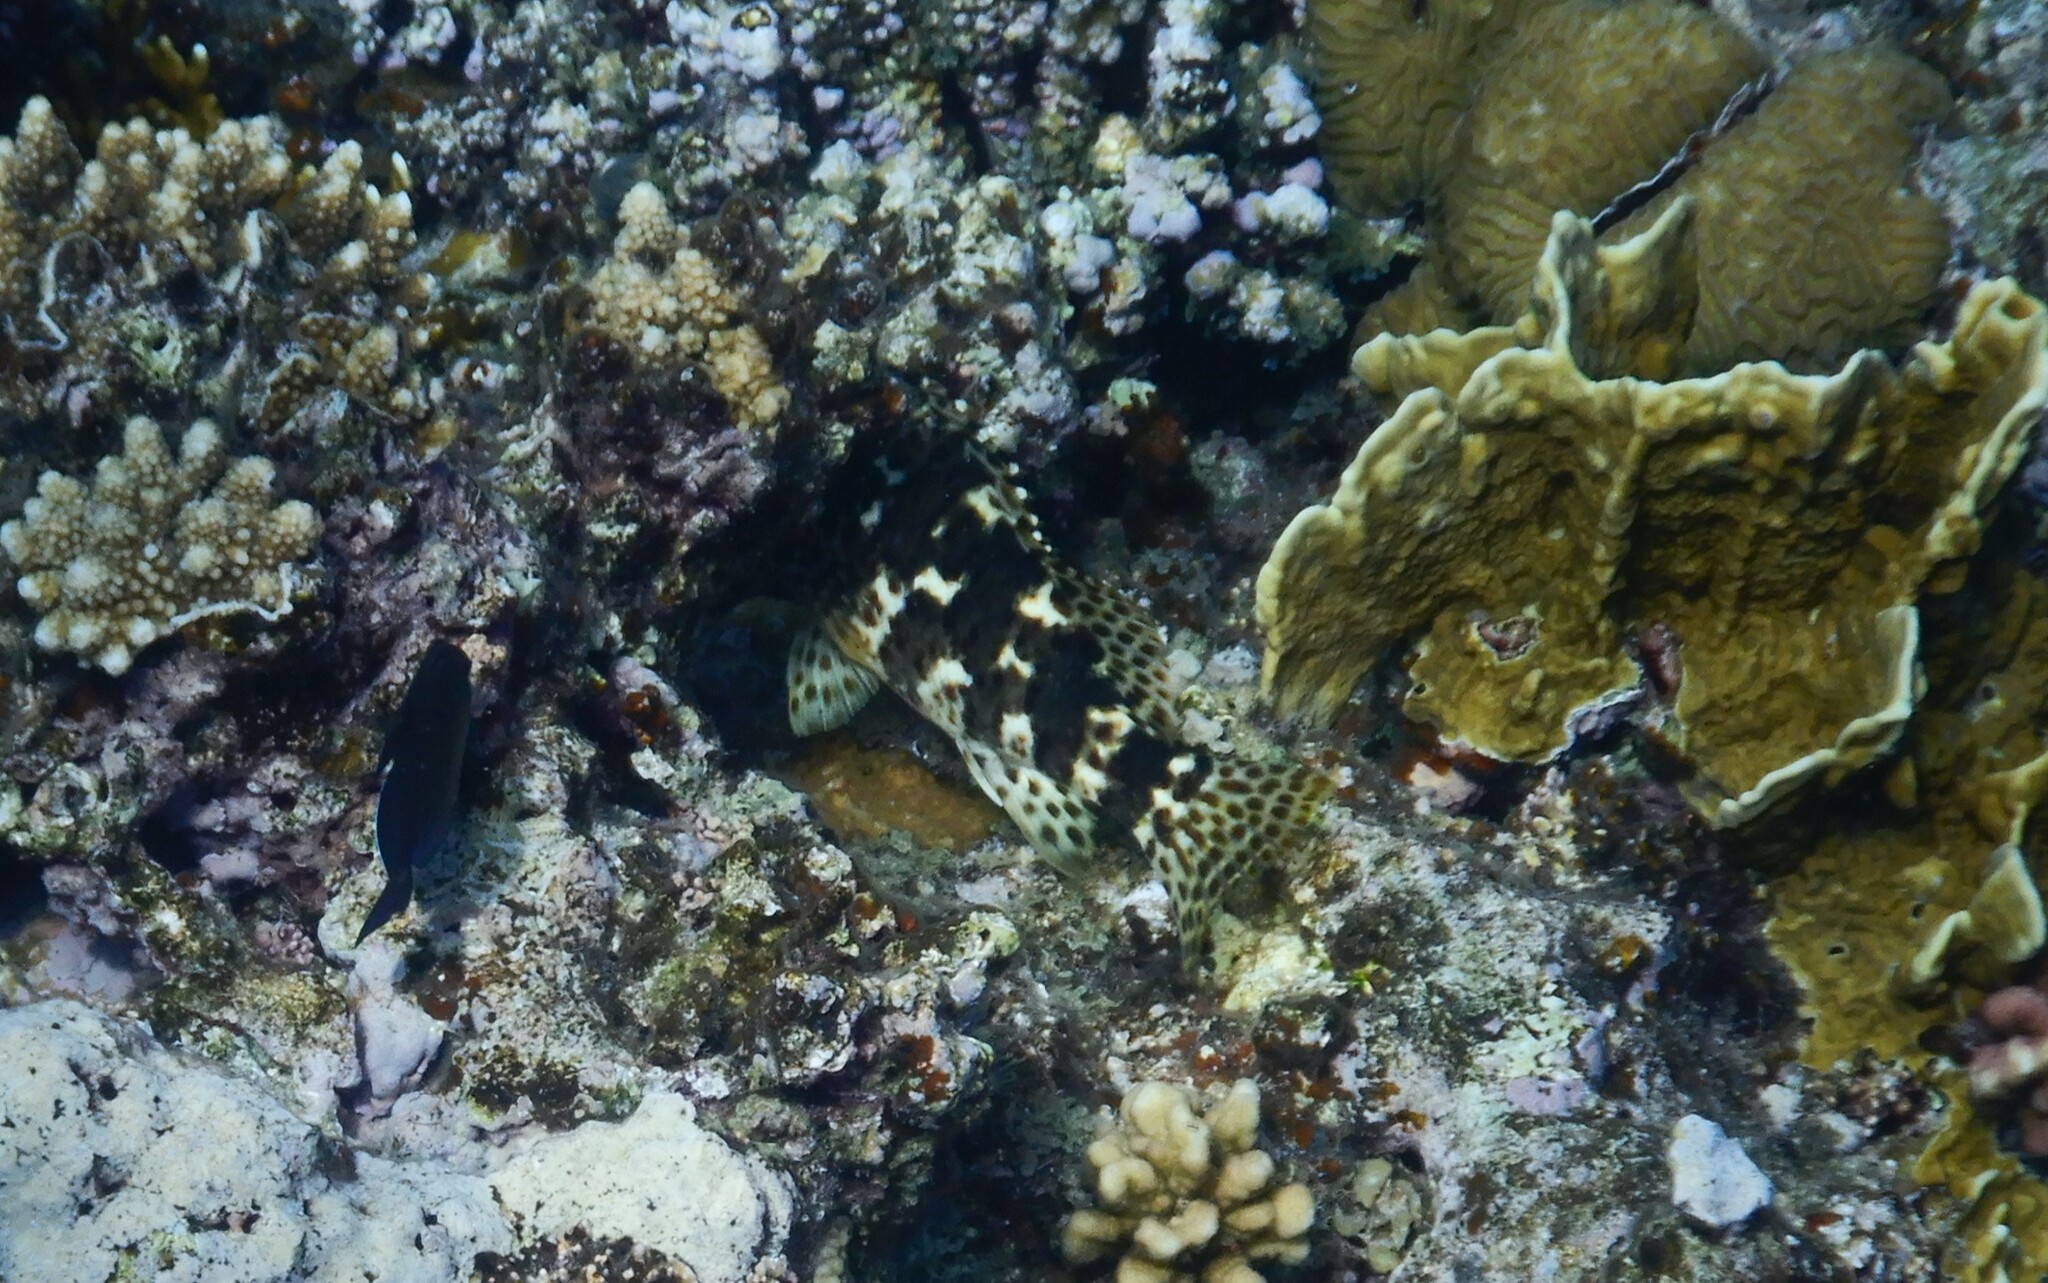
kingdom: Animalia
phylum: Chordata
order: Perciformes
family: Cirrhitidae
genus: Cirrhitus
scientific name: Cirrhitus pinnulatus
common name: Stocky hawkfish
